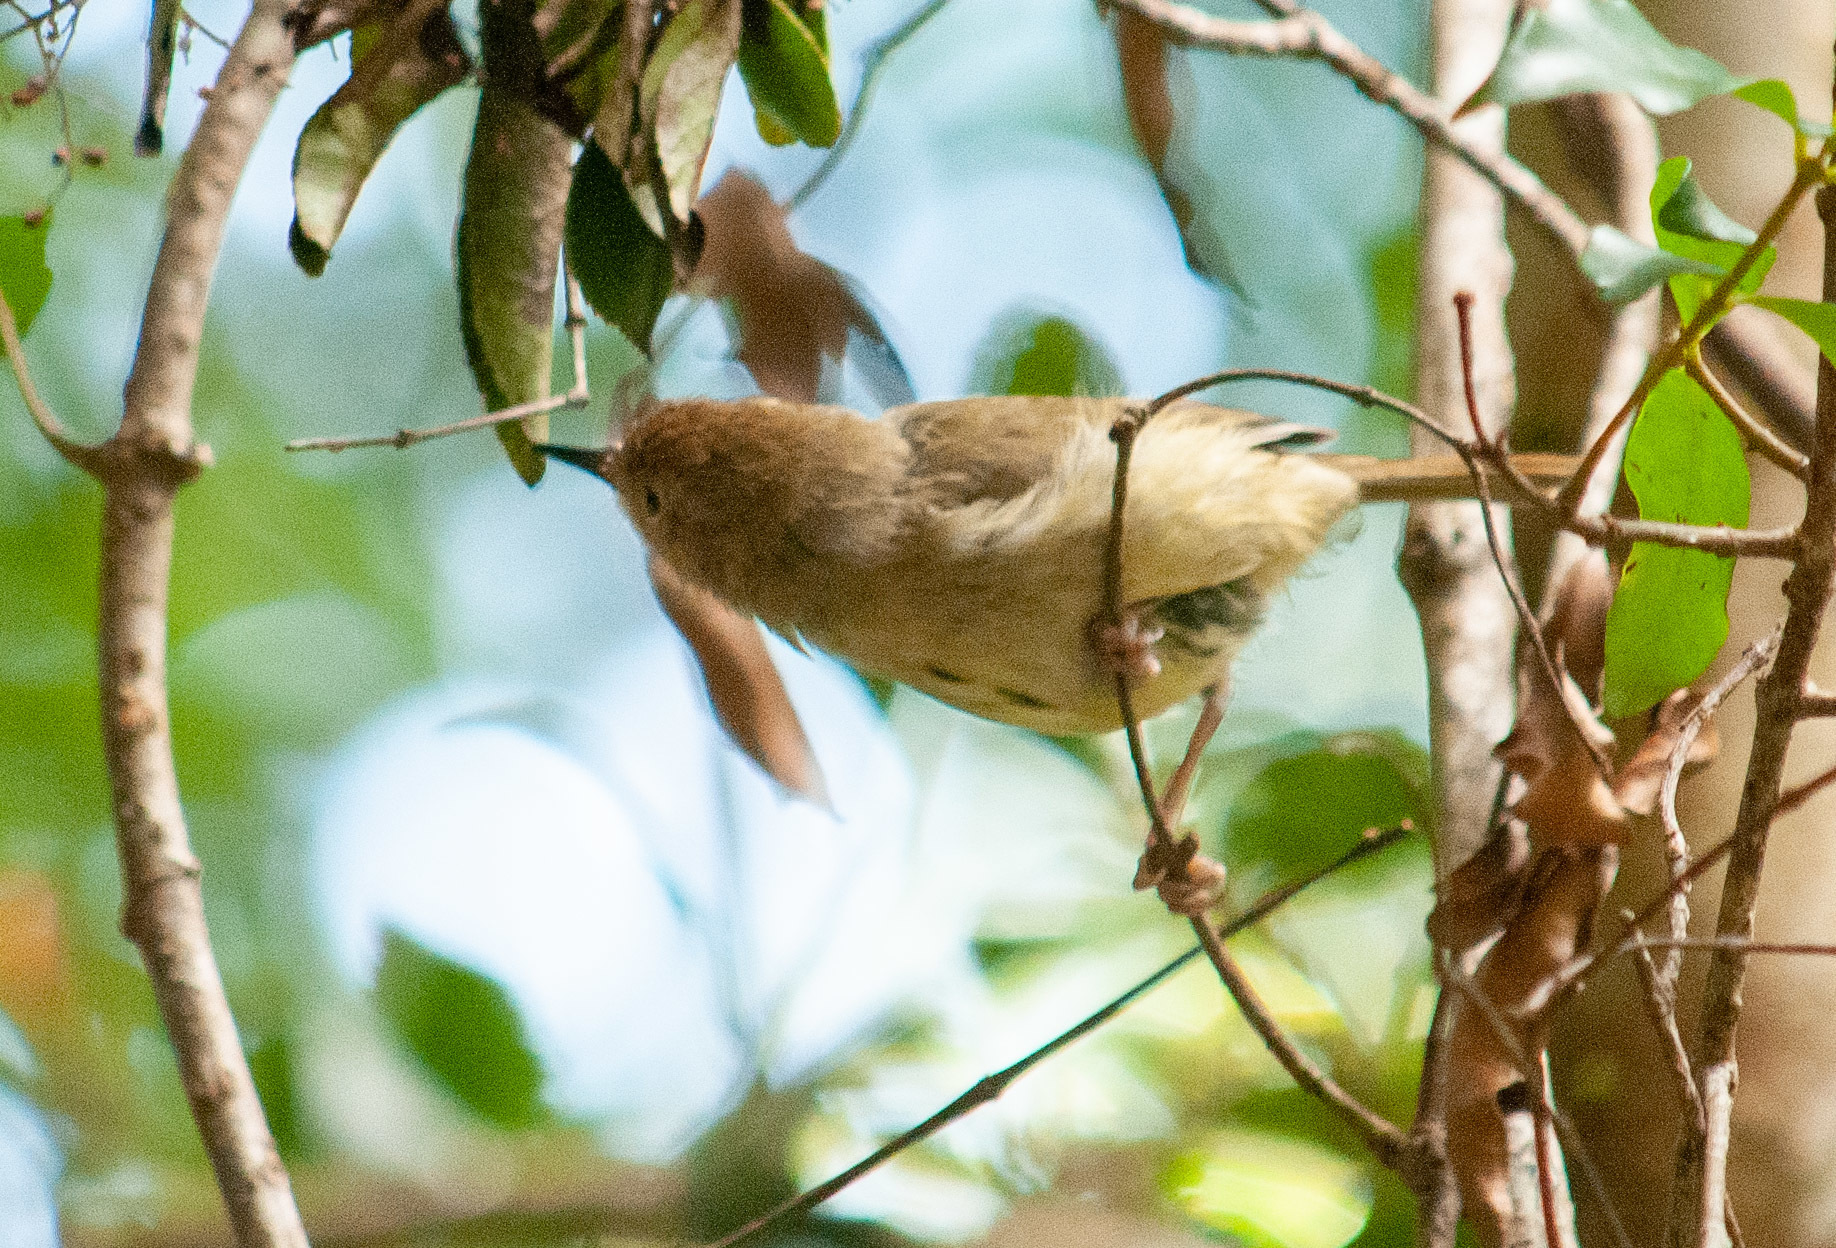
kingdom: Animalia
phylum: Chordata
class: Aves
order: Passeriformes
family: Acanthizidae
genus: Sericornis
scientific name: Sericornis magnirostra
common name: Large-billed scrubwren
